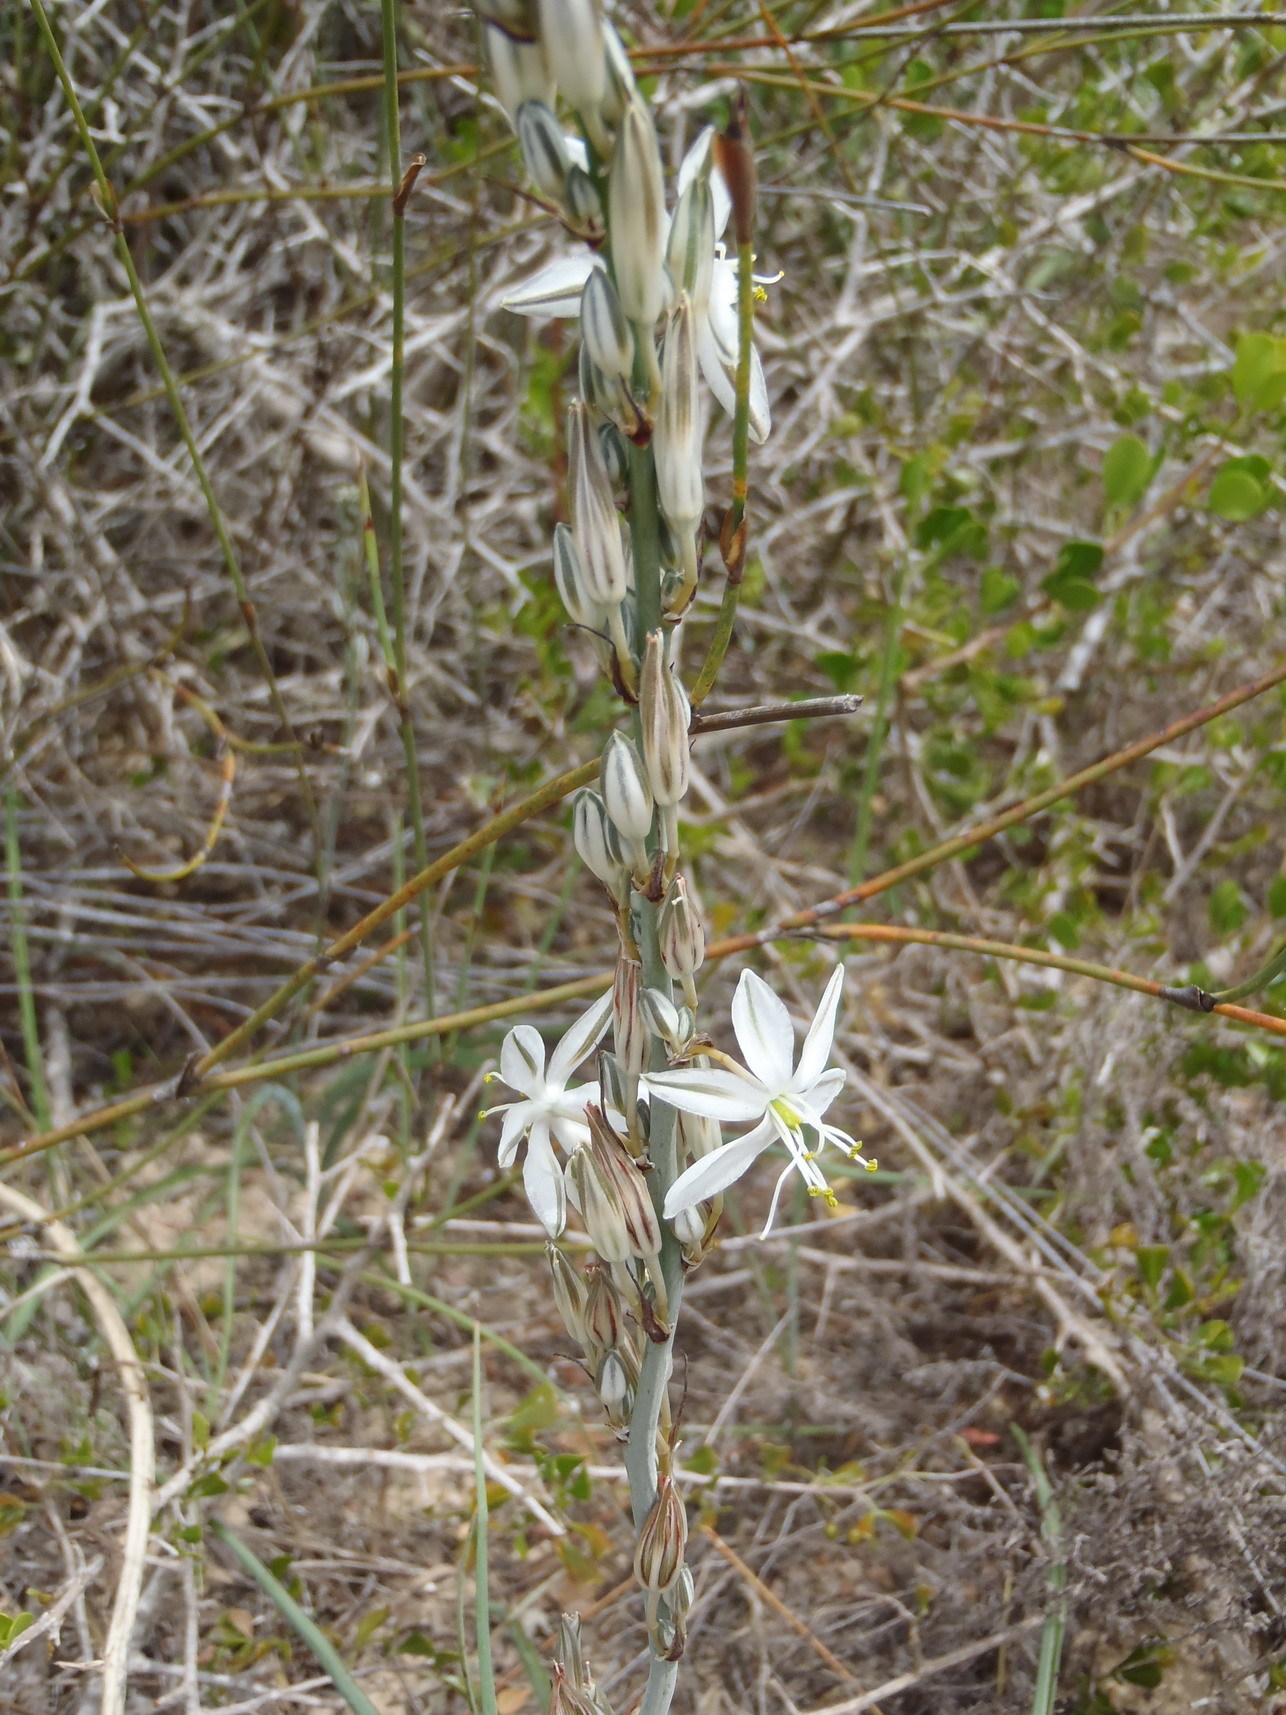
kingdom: Plantae
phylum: Tracheophyta
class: Liliopsida
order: Asparagales
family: Asparagaceae
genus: Chlorophytum
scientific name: Chlorophytum triflorum
